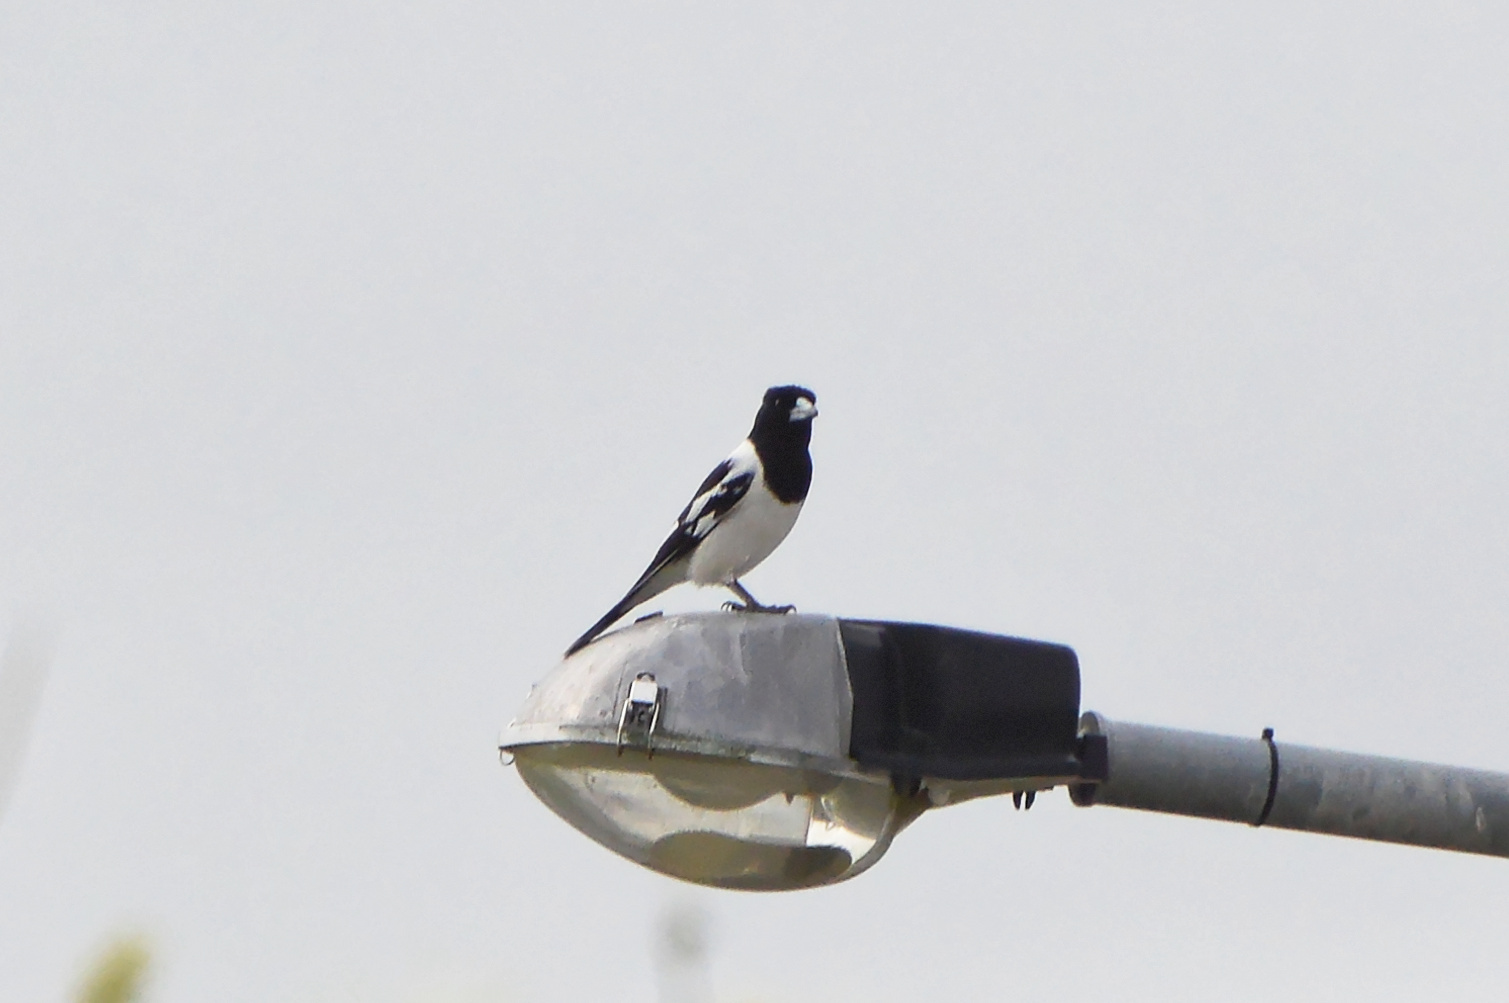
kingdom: Animalia
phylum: Chordata
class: Aves
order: Passeriformes
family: Cracticidae
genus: Cracticus
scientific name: Cracticus nigrogularis
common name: Pied butcherbird
